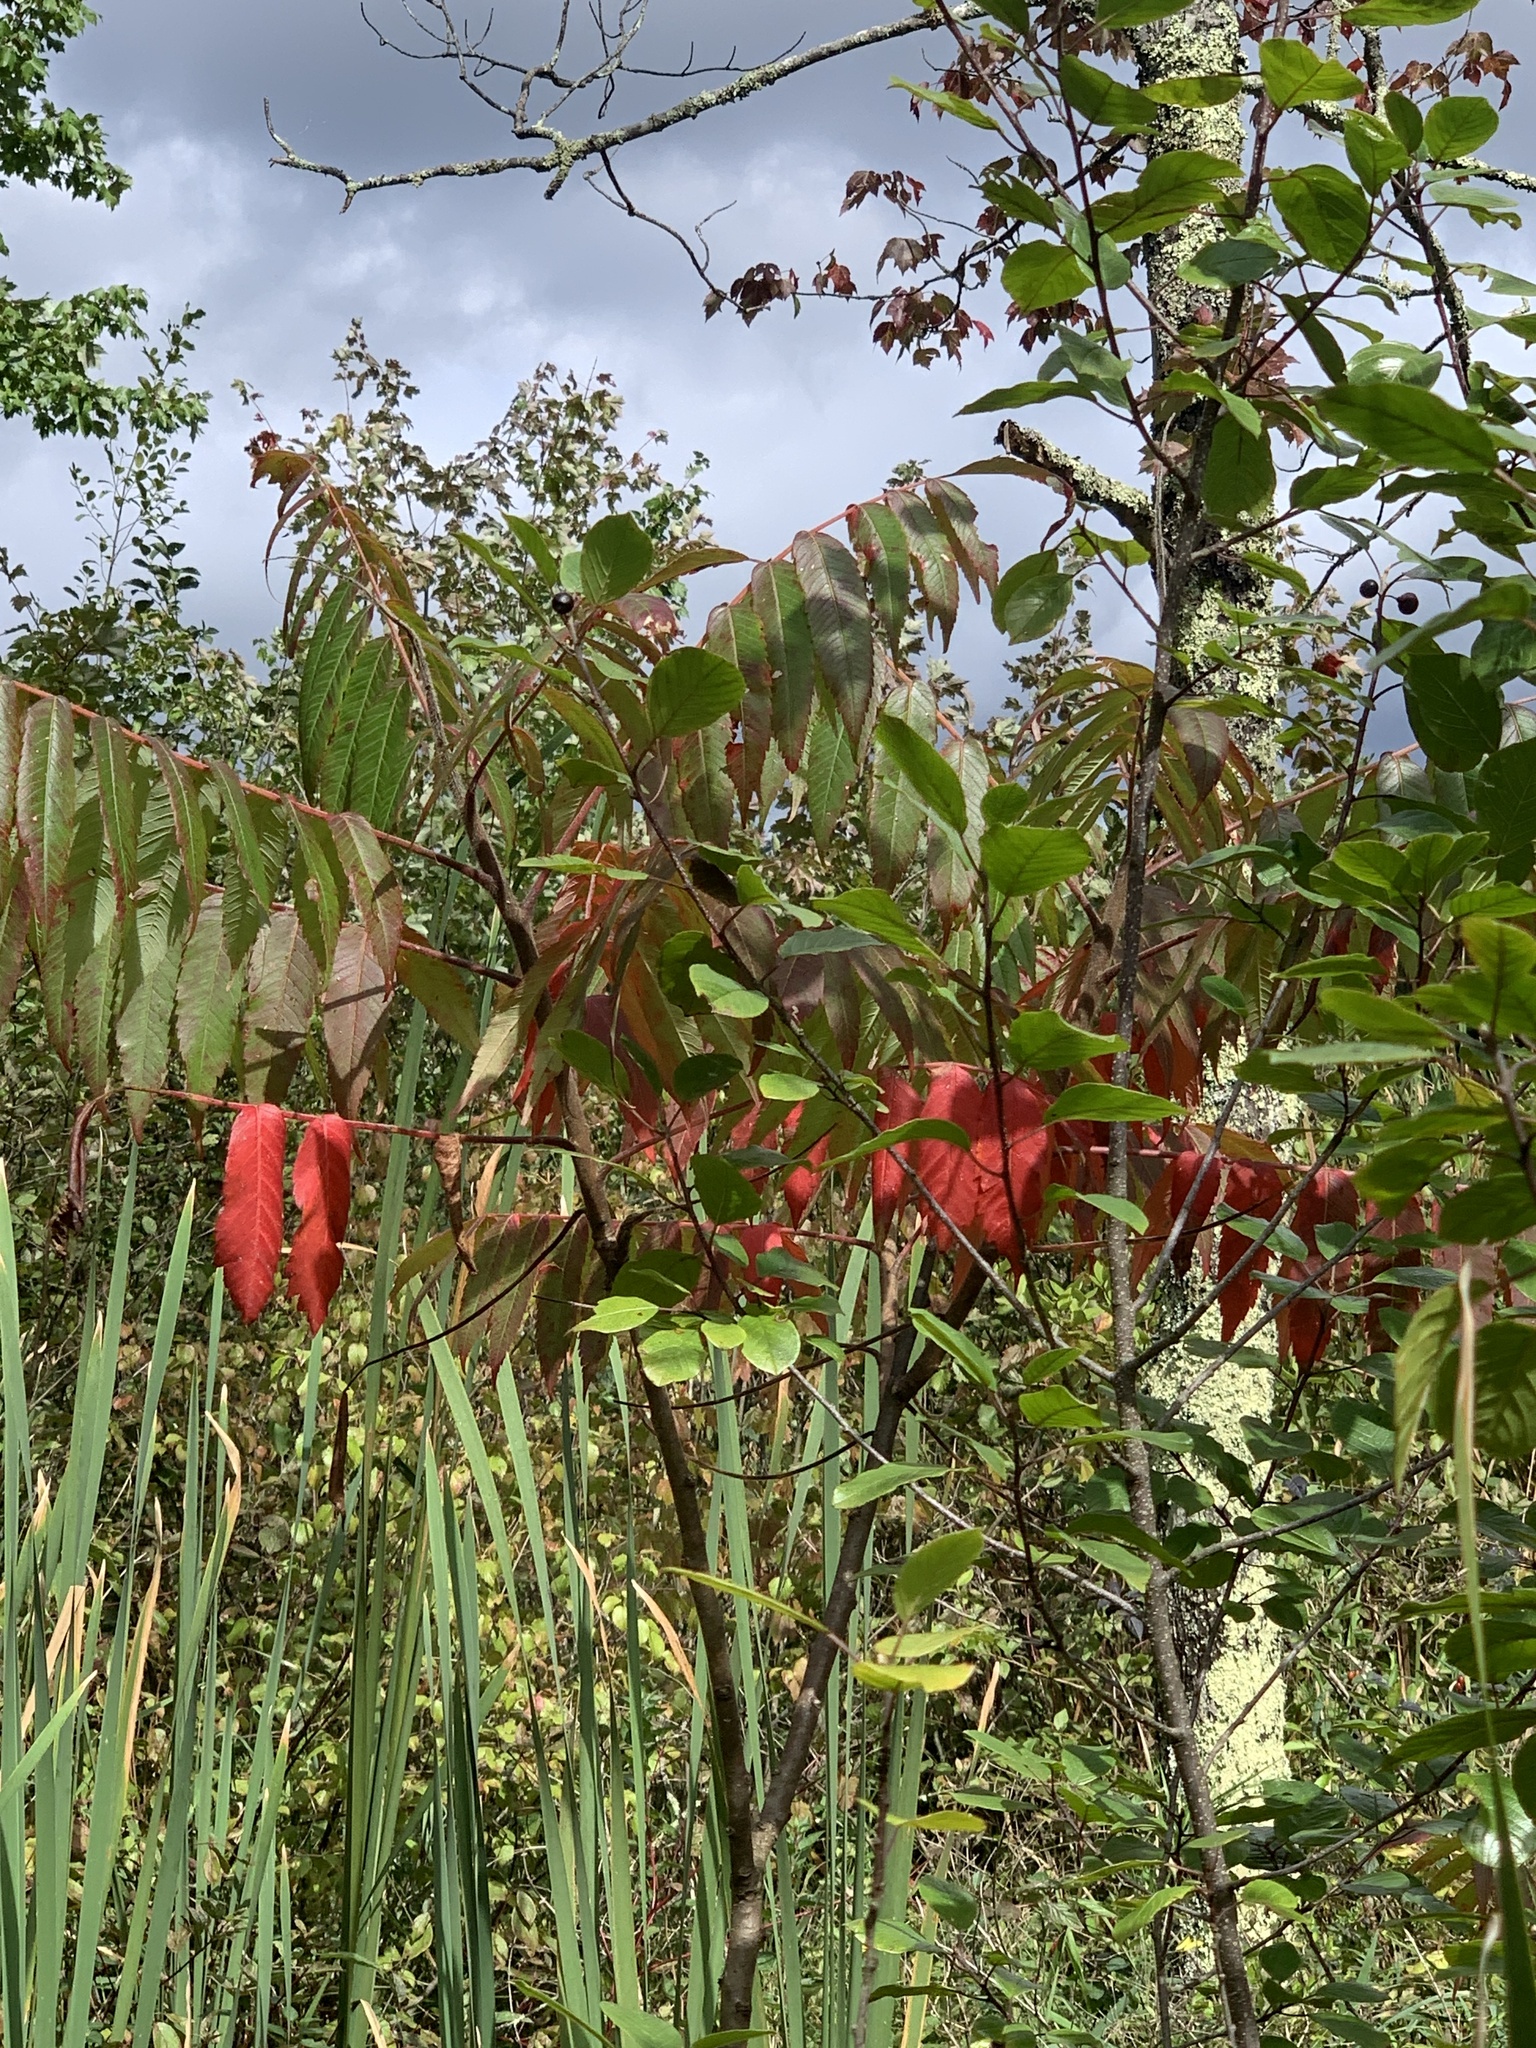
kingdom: Plantae
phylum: Tracheophyta
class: Magnoliopsida
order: Sapindales
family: Anacardiaceae
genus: Rhus
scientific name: Rhus typhina
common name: Staghorn sumac
